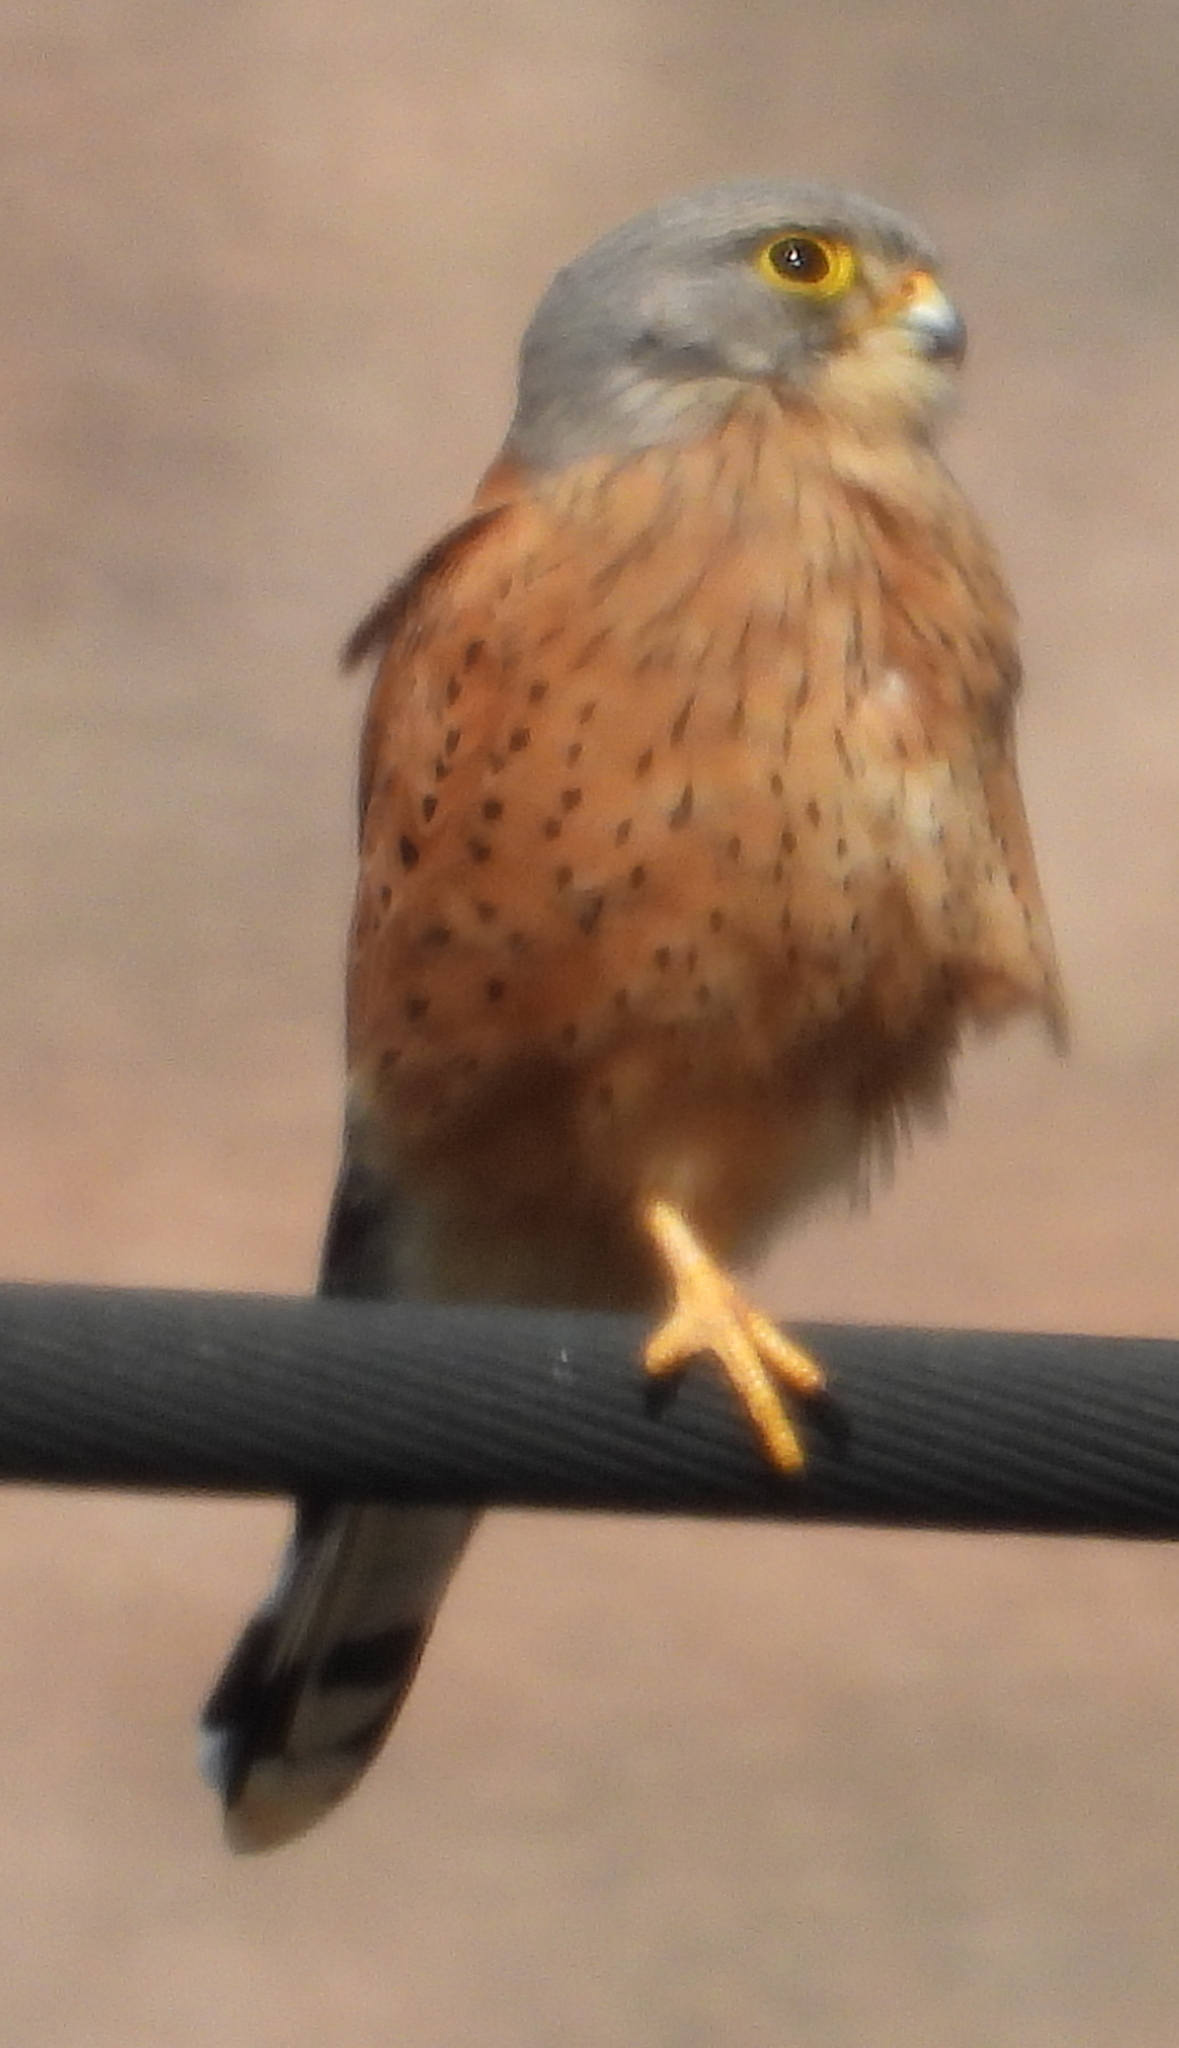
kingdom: Animalia
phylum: Chordata
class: Aves
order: Falconiformes
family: Falconidae
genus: Falco
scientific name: Falco rupicolus
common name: Rock kestrel
